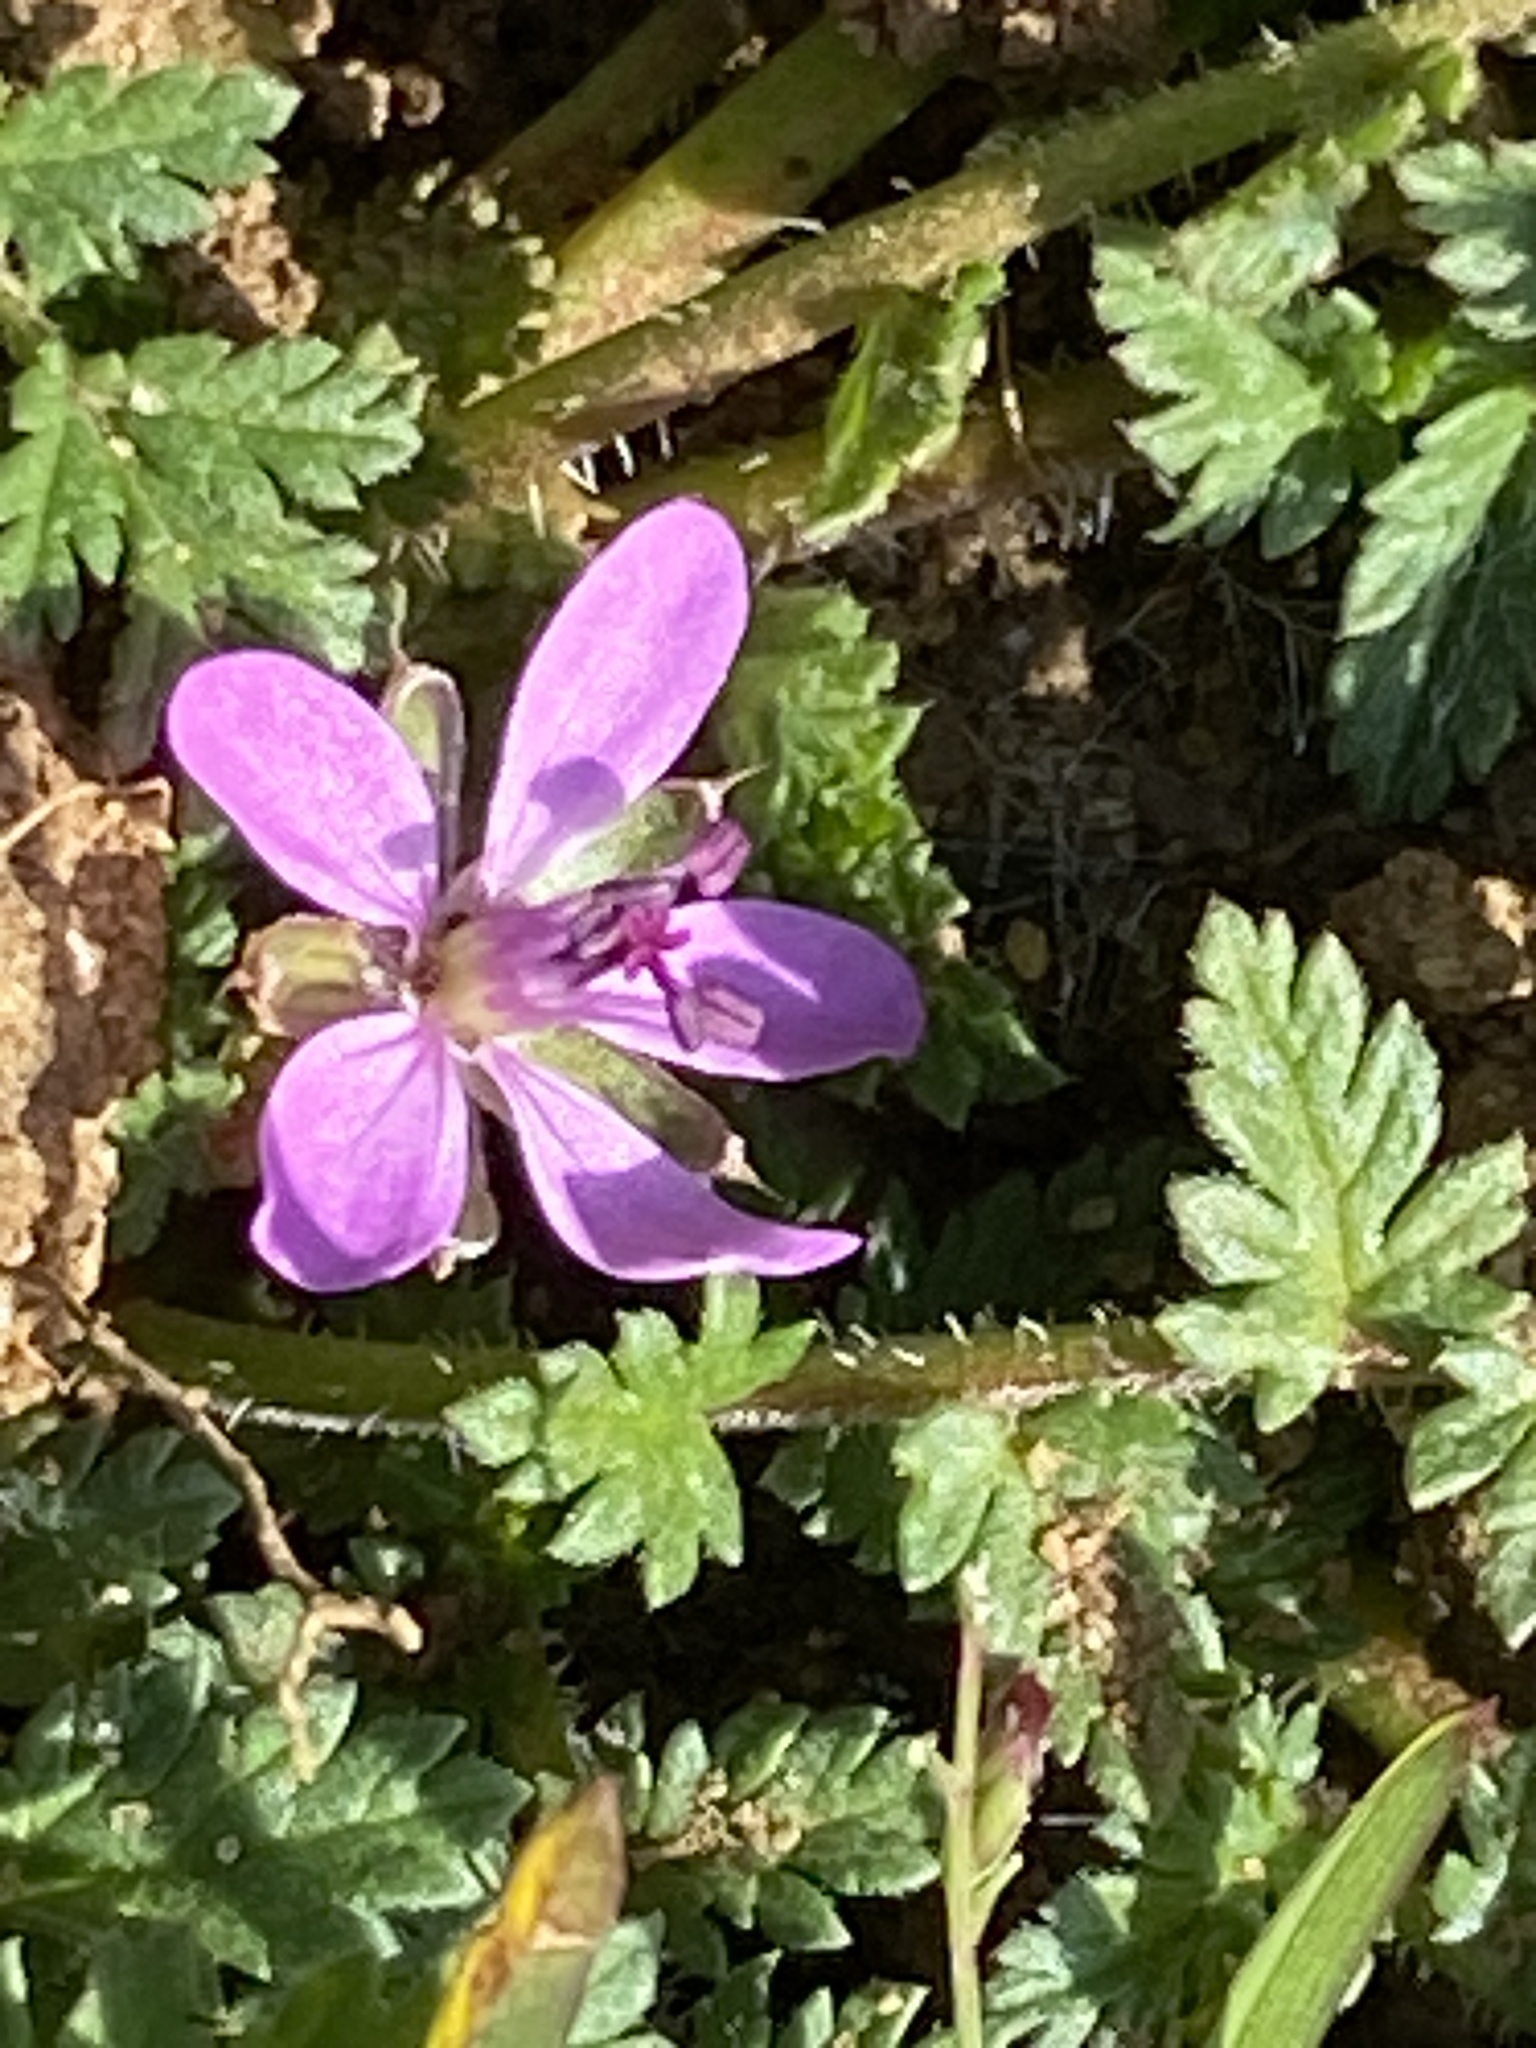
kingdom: Plantae
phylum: Tracheophyta
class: Magnoliopsida
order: Geraniales
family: Geraniaceae
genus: Erodium
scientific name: Erodium cicutarium
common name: Common stork's-bill
